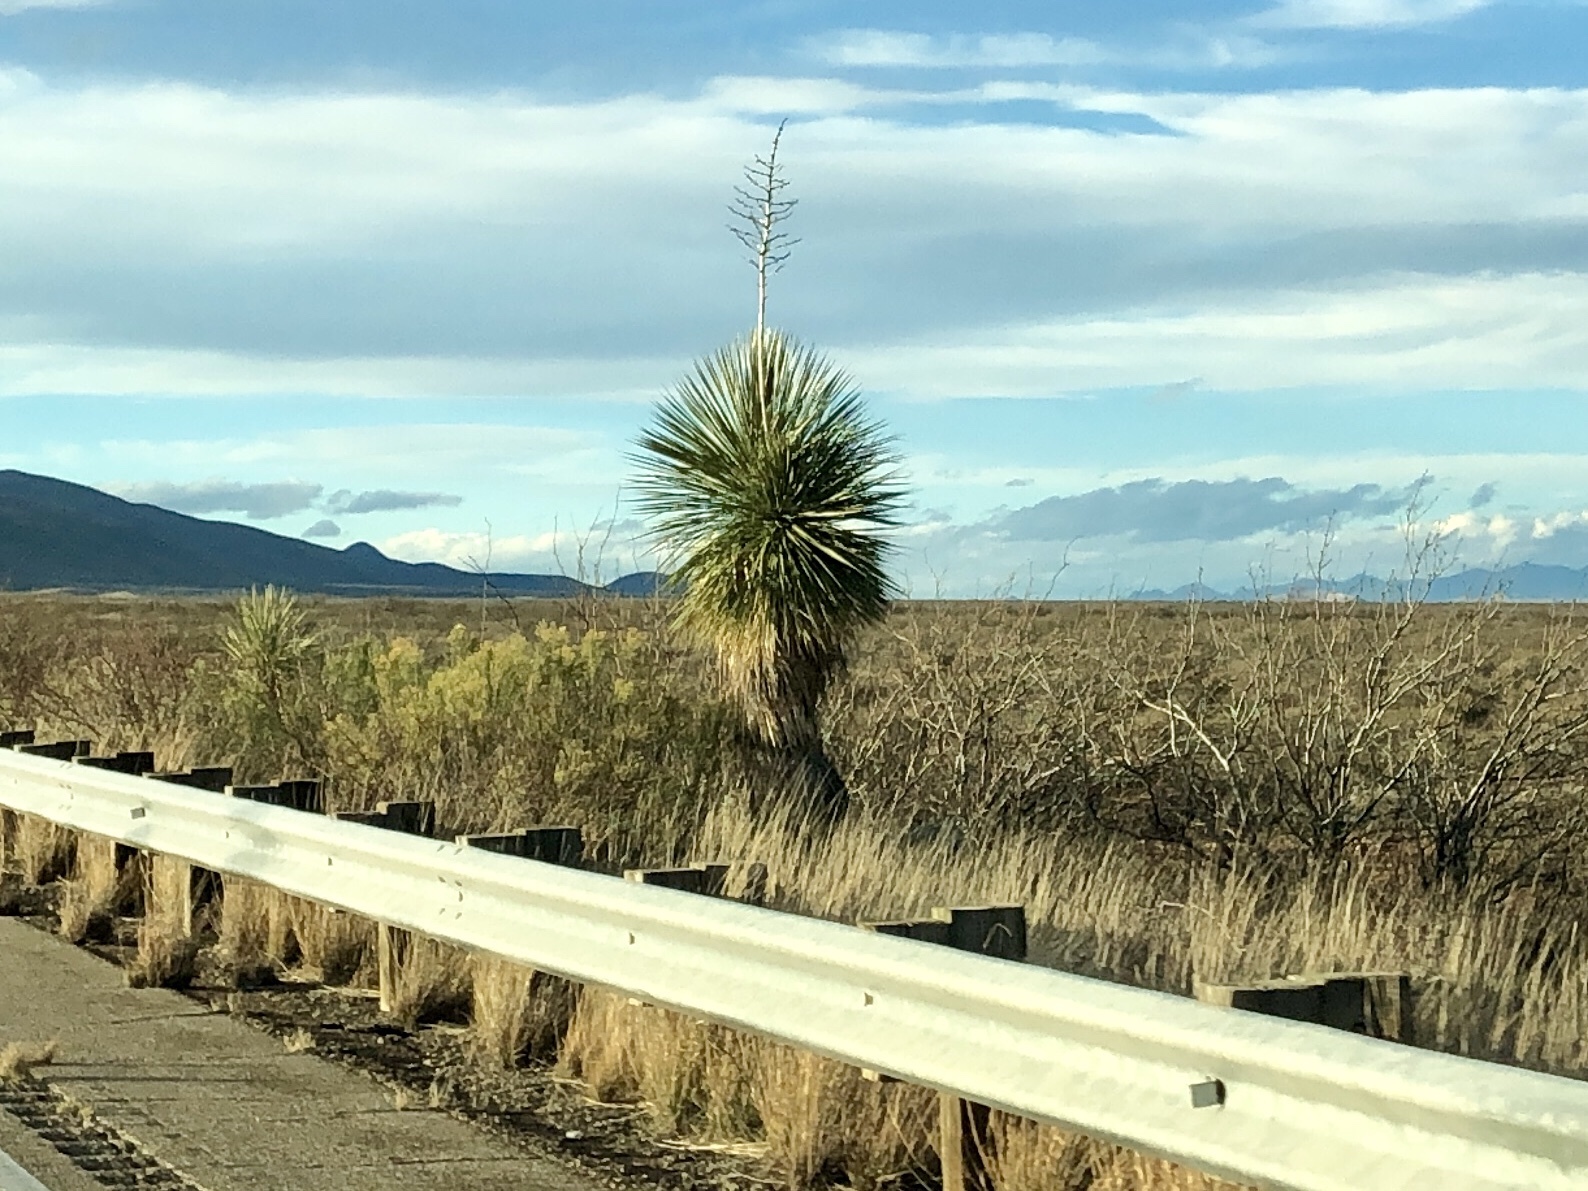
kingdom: Plantae
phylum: Tracheophyta
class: Liliopsida
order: Asparagales
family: Asparagaceae
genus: Yucca
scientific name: Yucca elata
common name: Palmella
